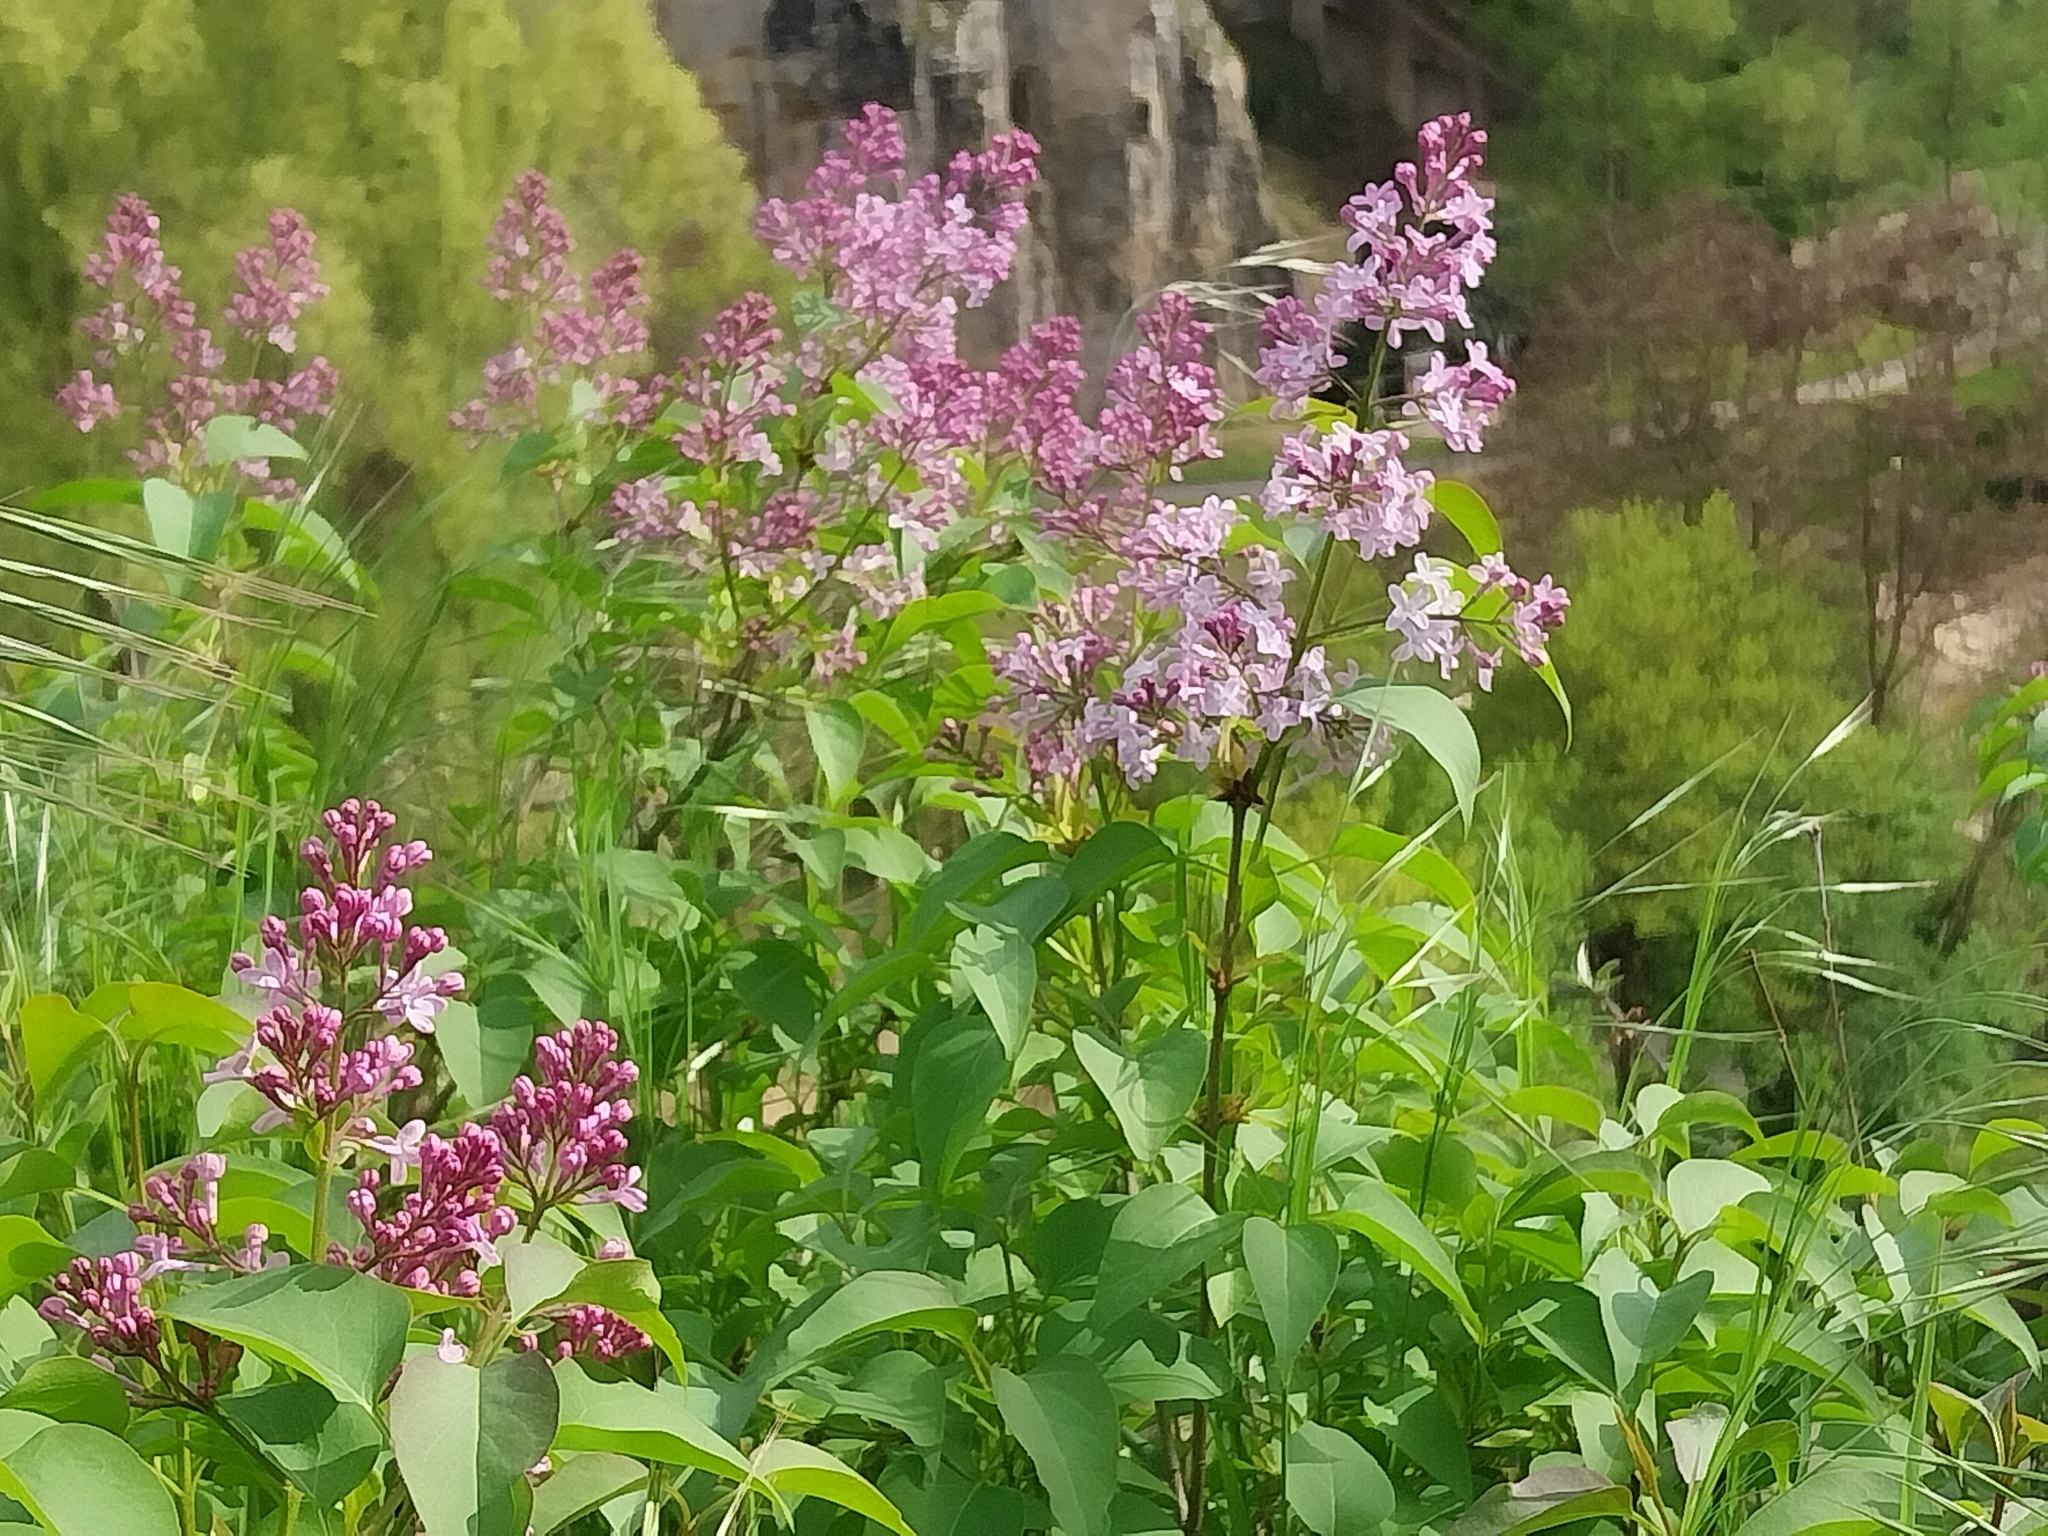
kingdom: Plantae
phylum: Tracheophyta
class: Magnoliopsida
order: Lamiales
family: Oleaceae
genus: Syringa
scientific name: Syringa vulgaris
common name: Common lilac
